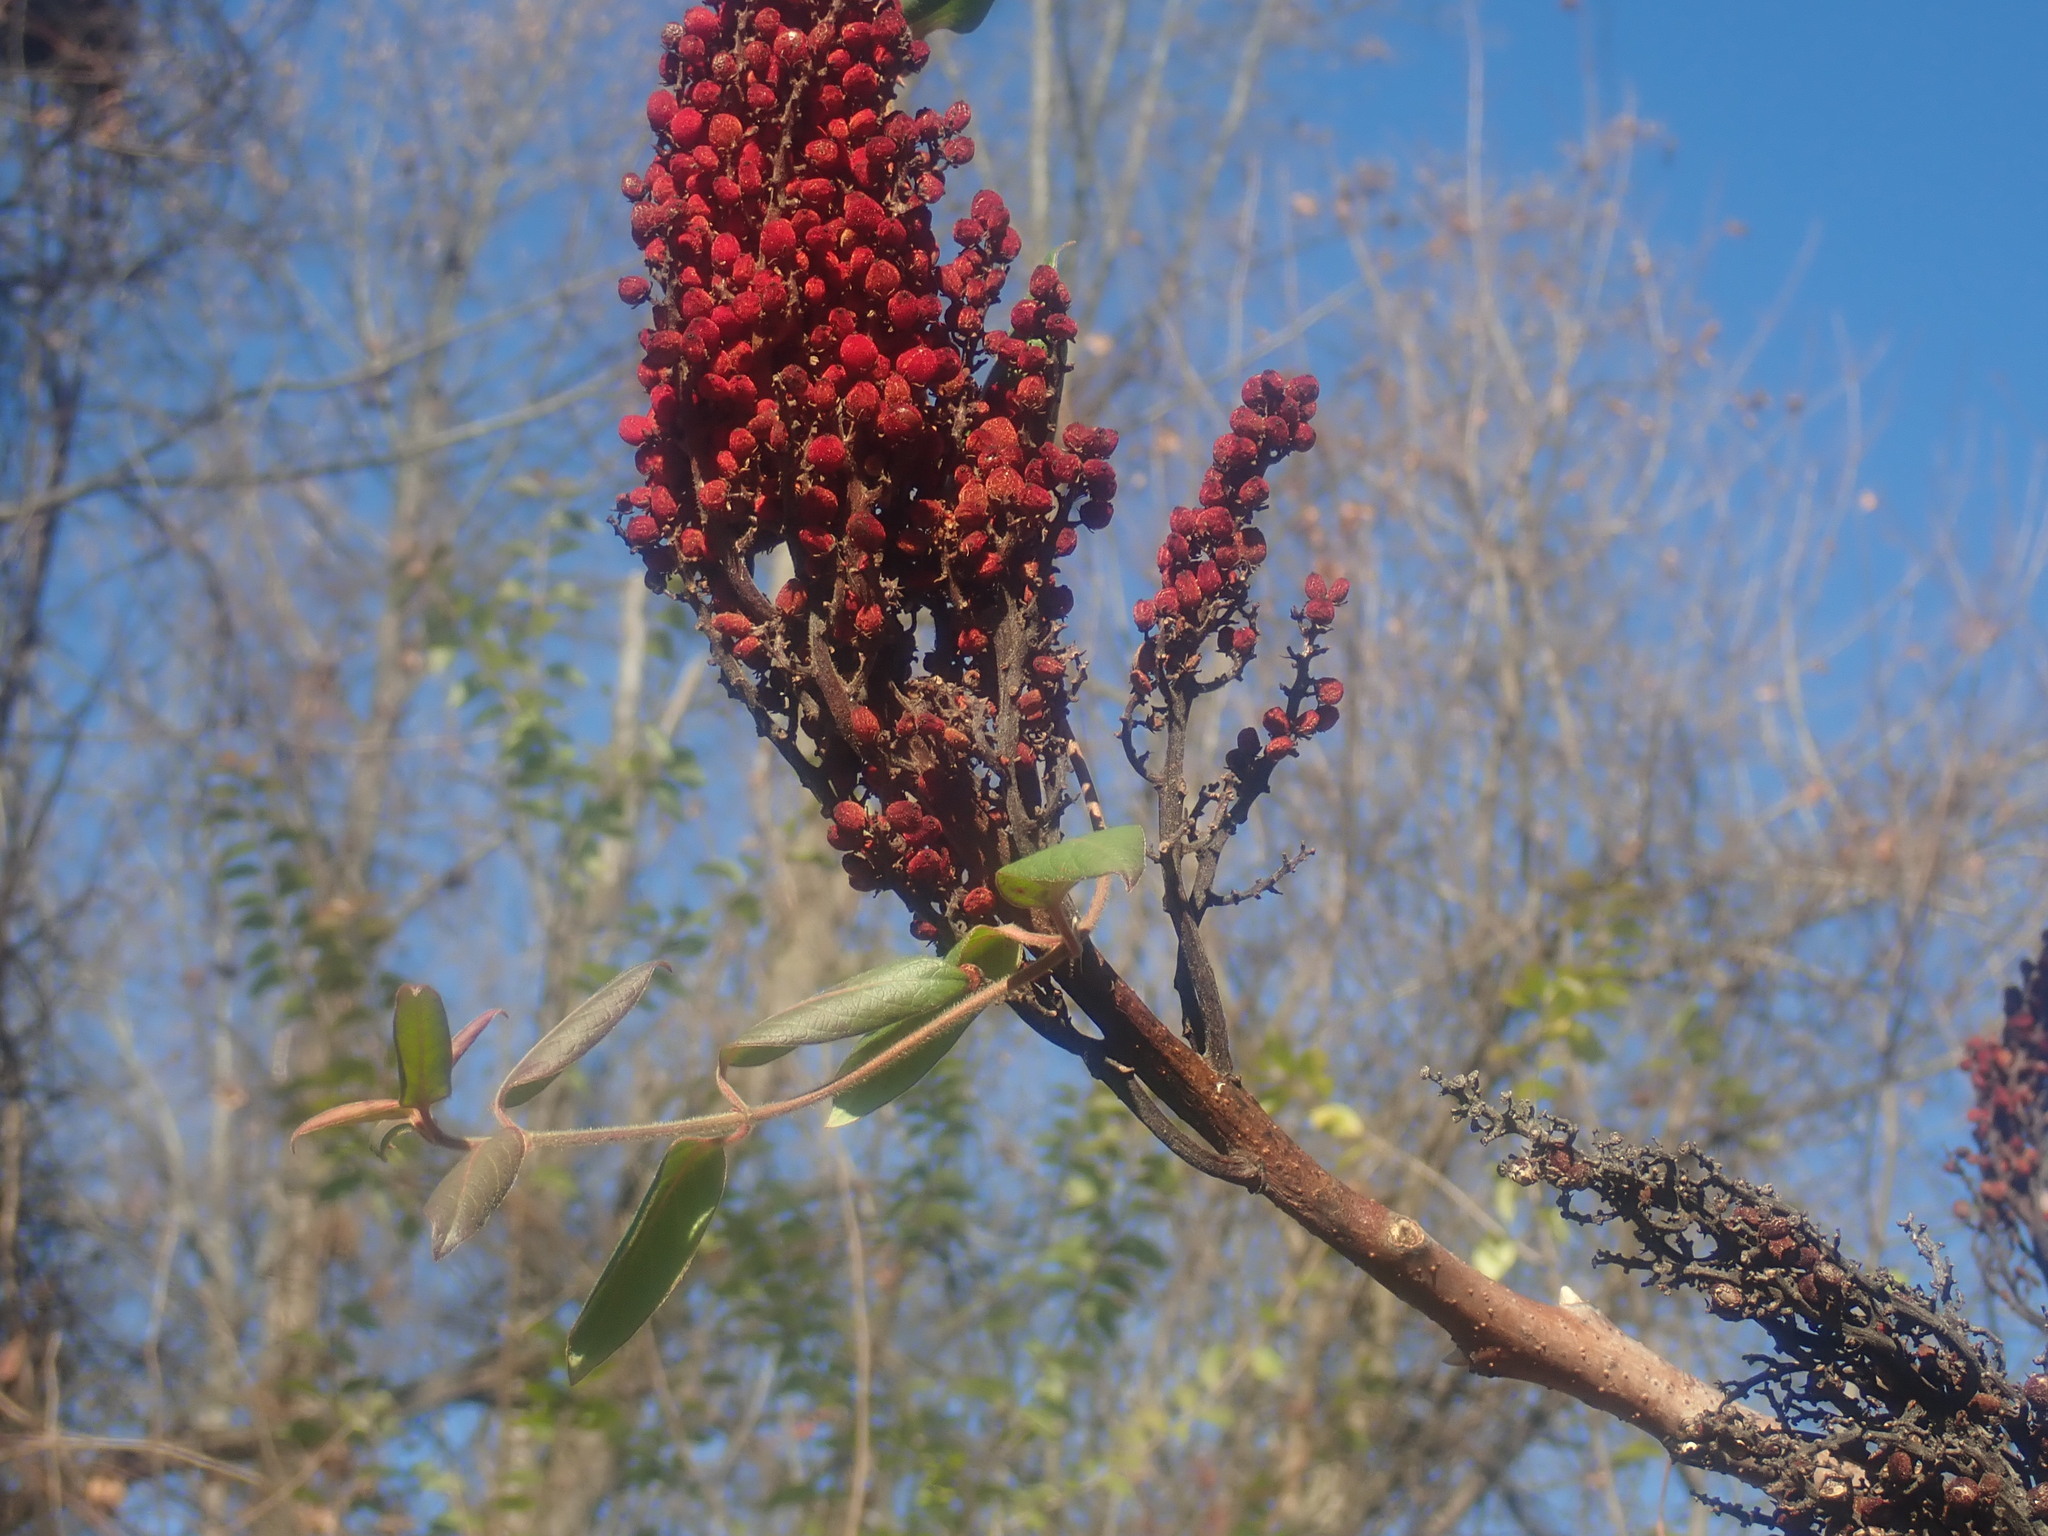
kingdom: Plantae
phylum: Tracheophyta
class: Magnoliopsida
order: Sapindales
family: Anacardiaceae
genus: Rhus
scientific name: Rhus glabra
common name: Scarlet sumac
